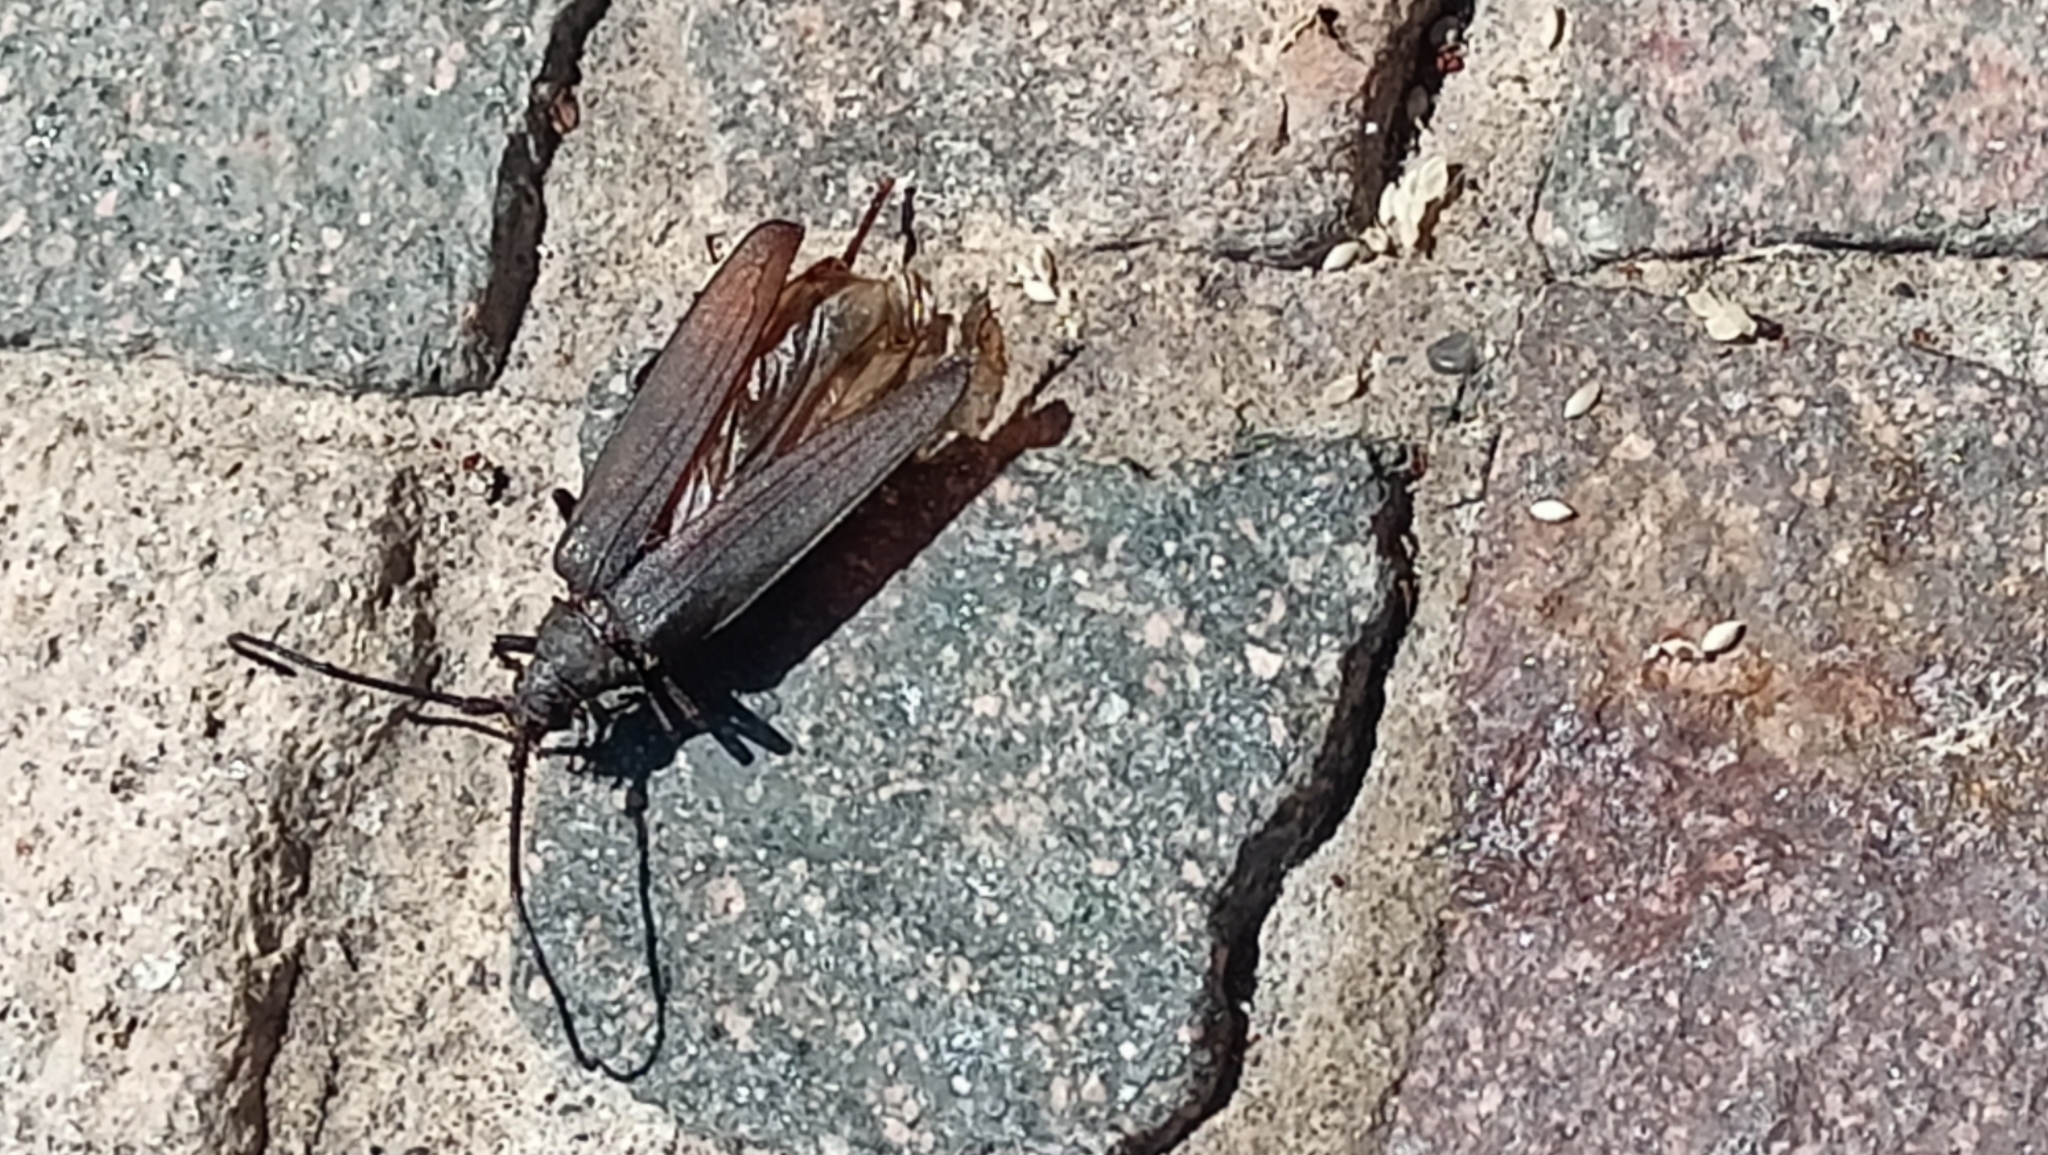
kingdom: Animalia
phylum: Arthropoda
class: Insecta
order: Coleoptera
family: Cerambycidae
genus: Aegosoma
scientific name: Aegosoma scabricorne
